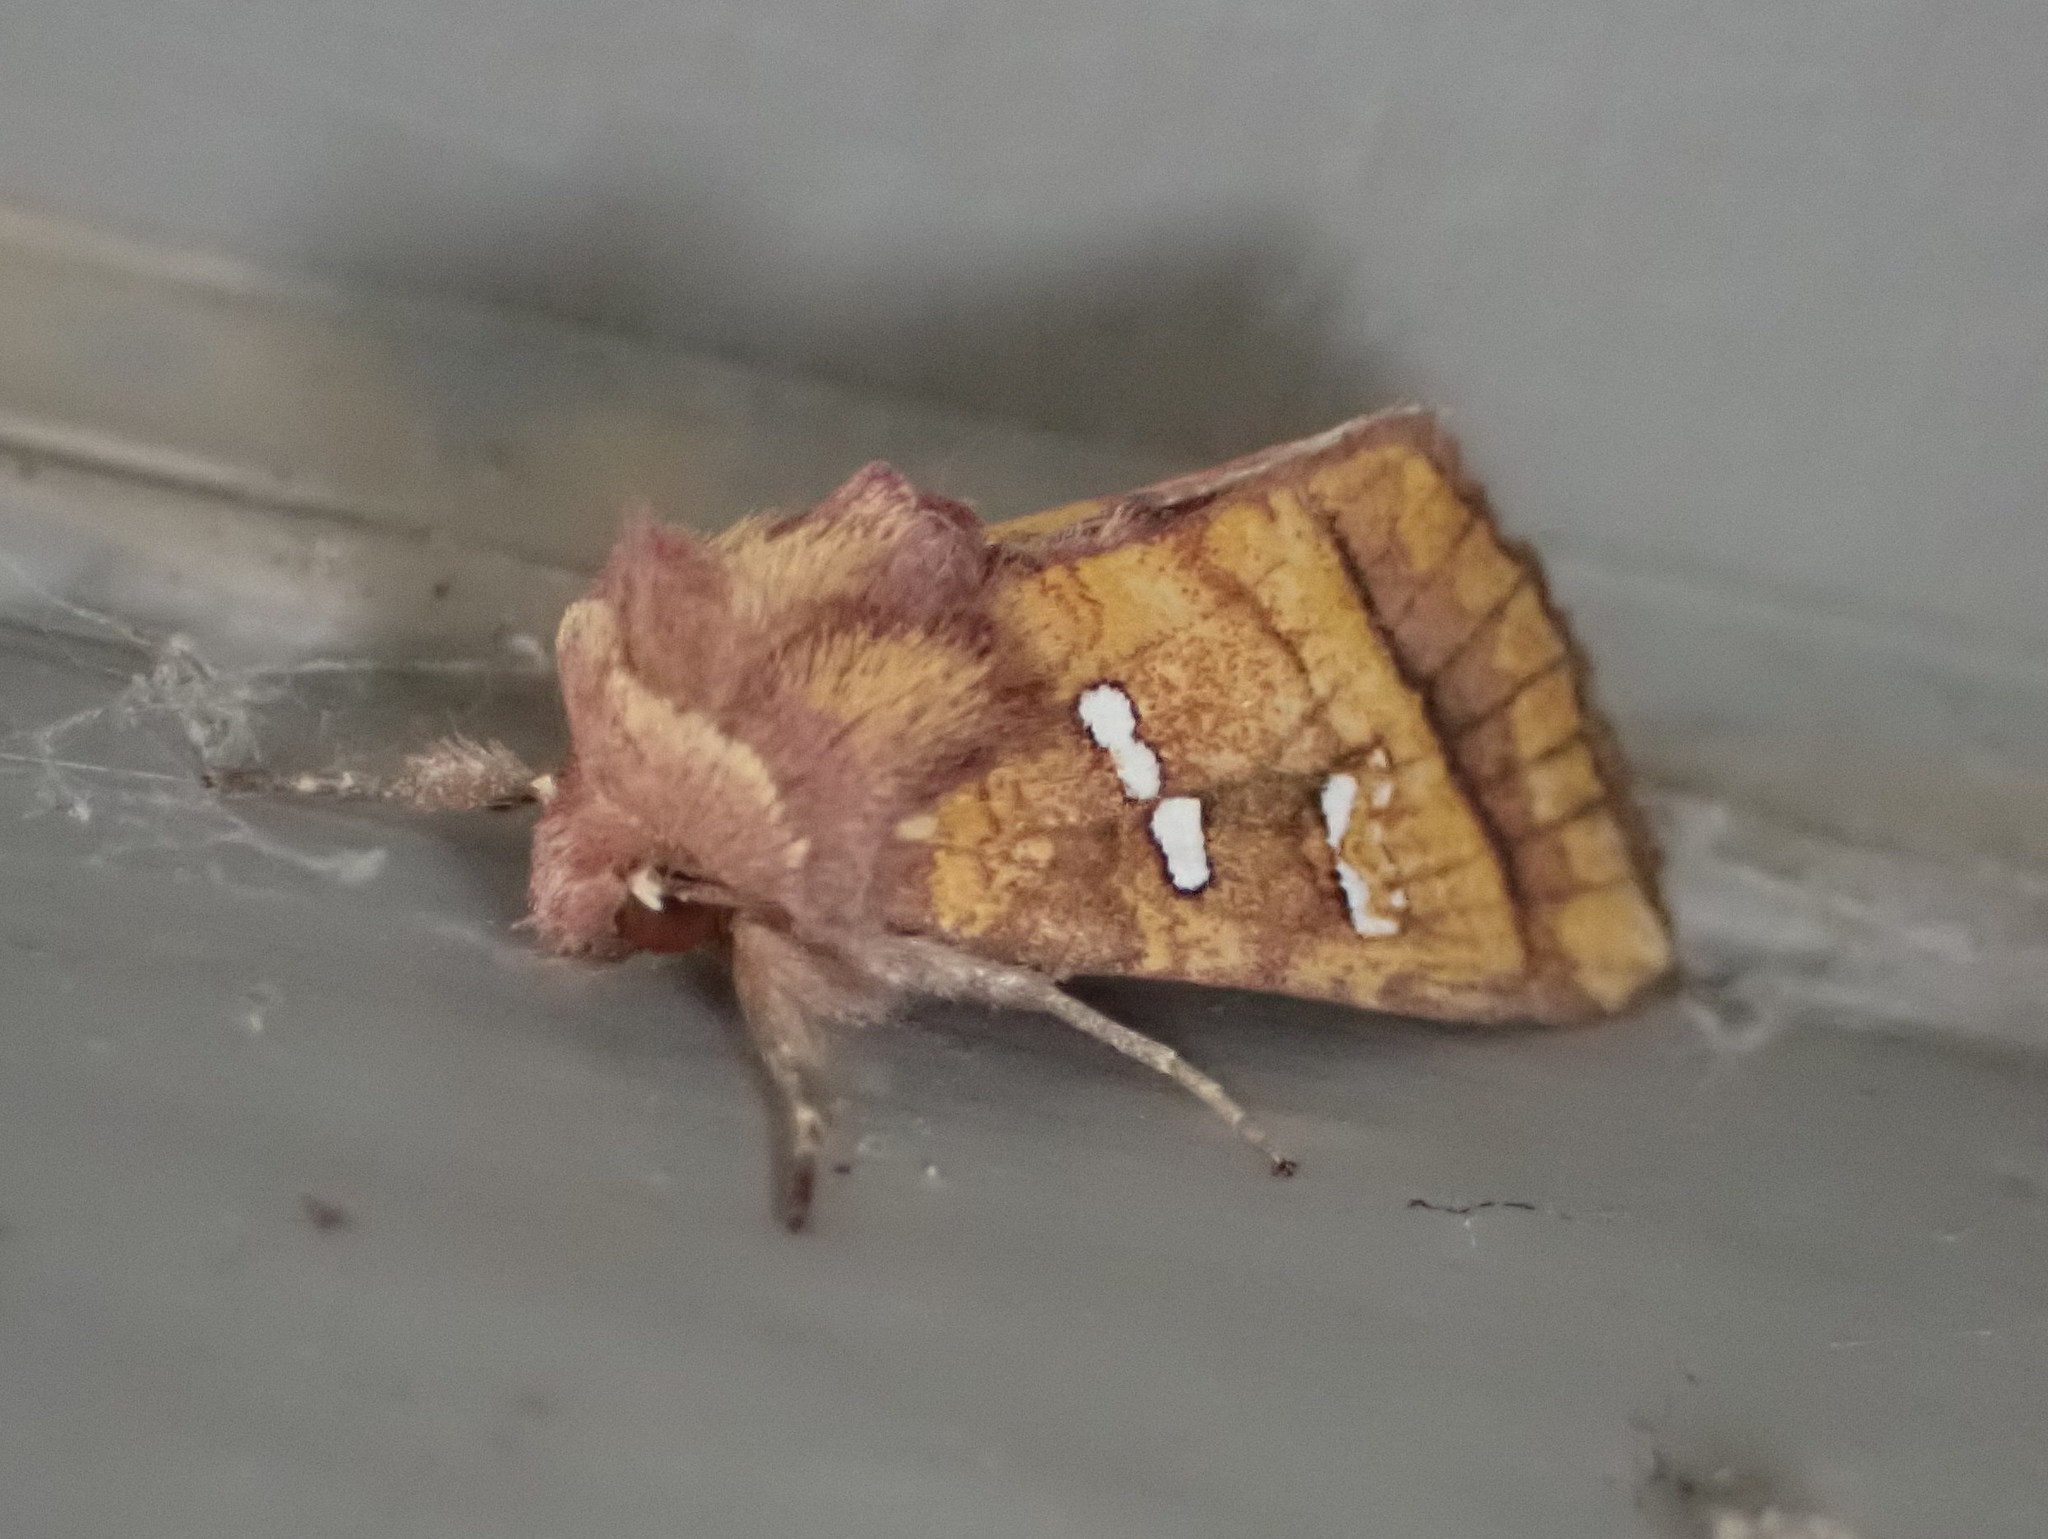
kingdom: Animalia
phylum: Arthropoda
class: Insecta
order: Lepidoptera
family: Noctuidae
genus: Papaipema
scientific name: Papaipema pterisii
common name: Bracken borer moth
